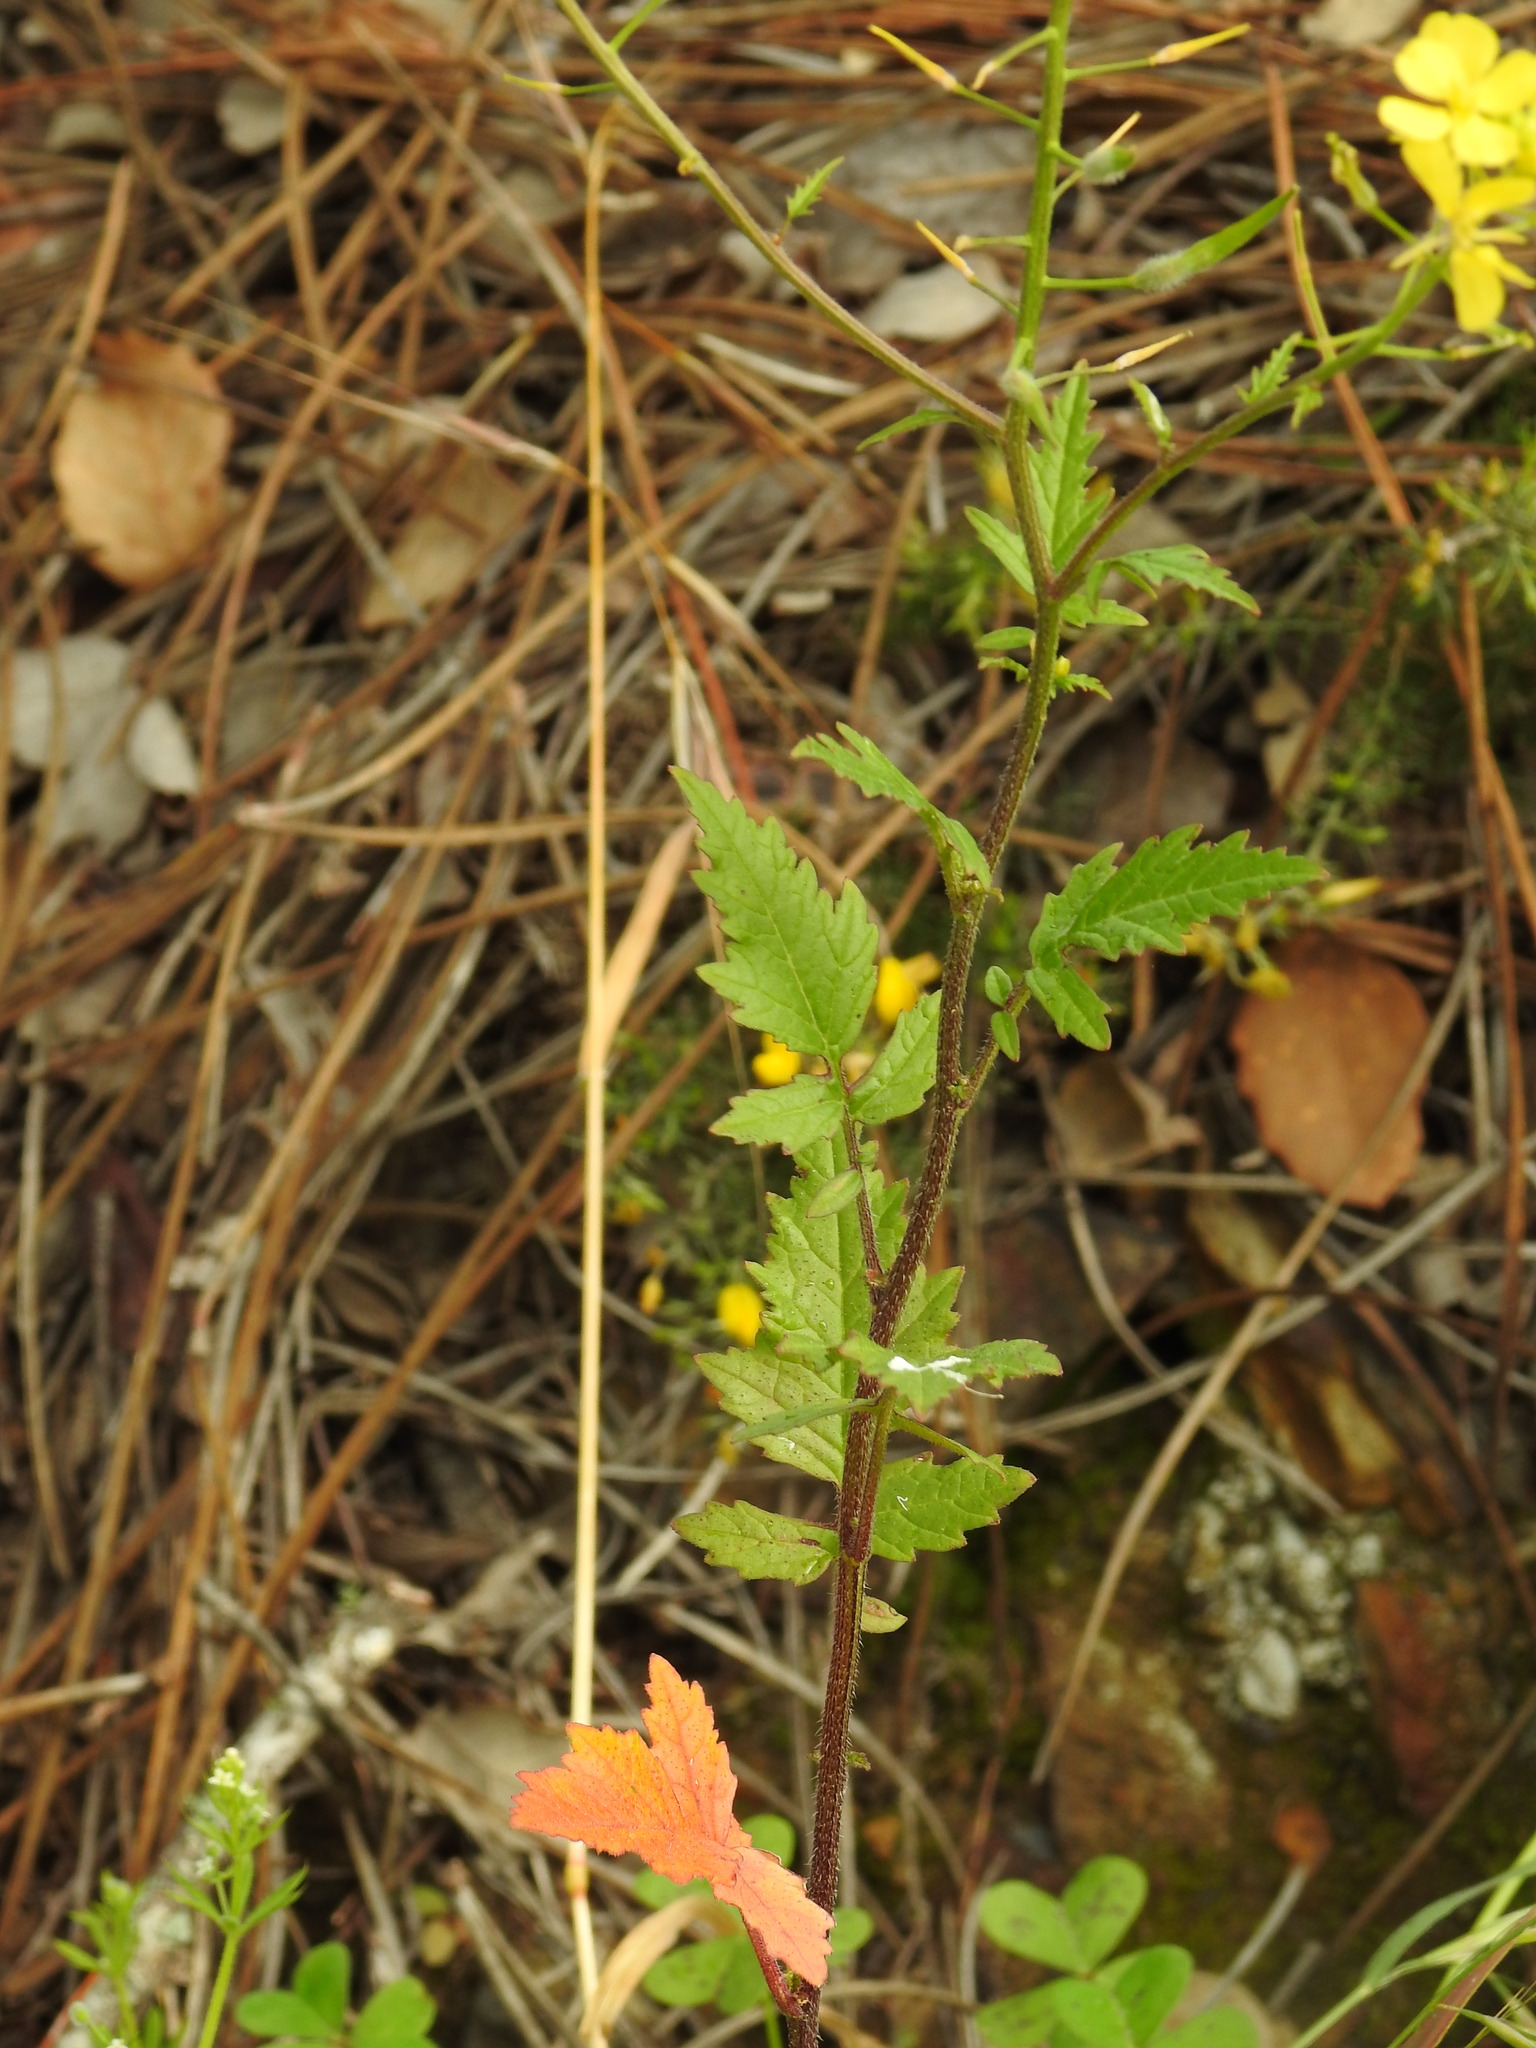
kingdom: Plantae
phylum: Tracheophyta
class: Magnoliopsida
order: Brassicales
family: Brassicaceae
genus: Sinapis
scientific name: Sinapis alba
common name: White mustard
